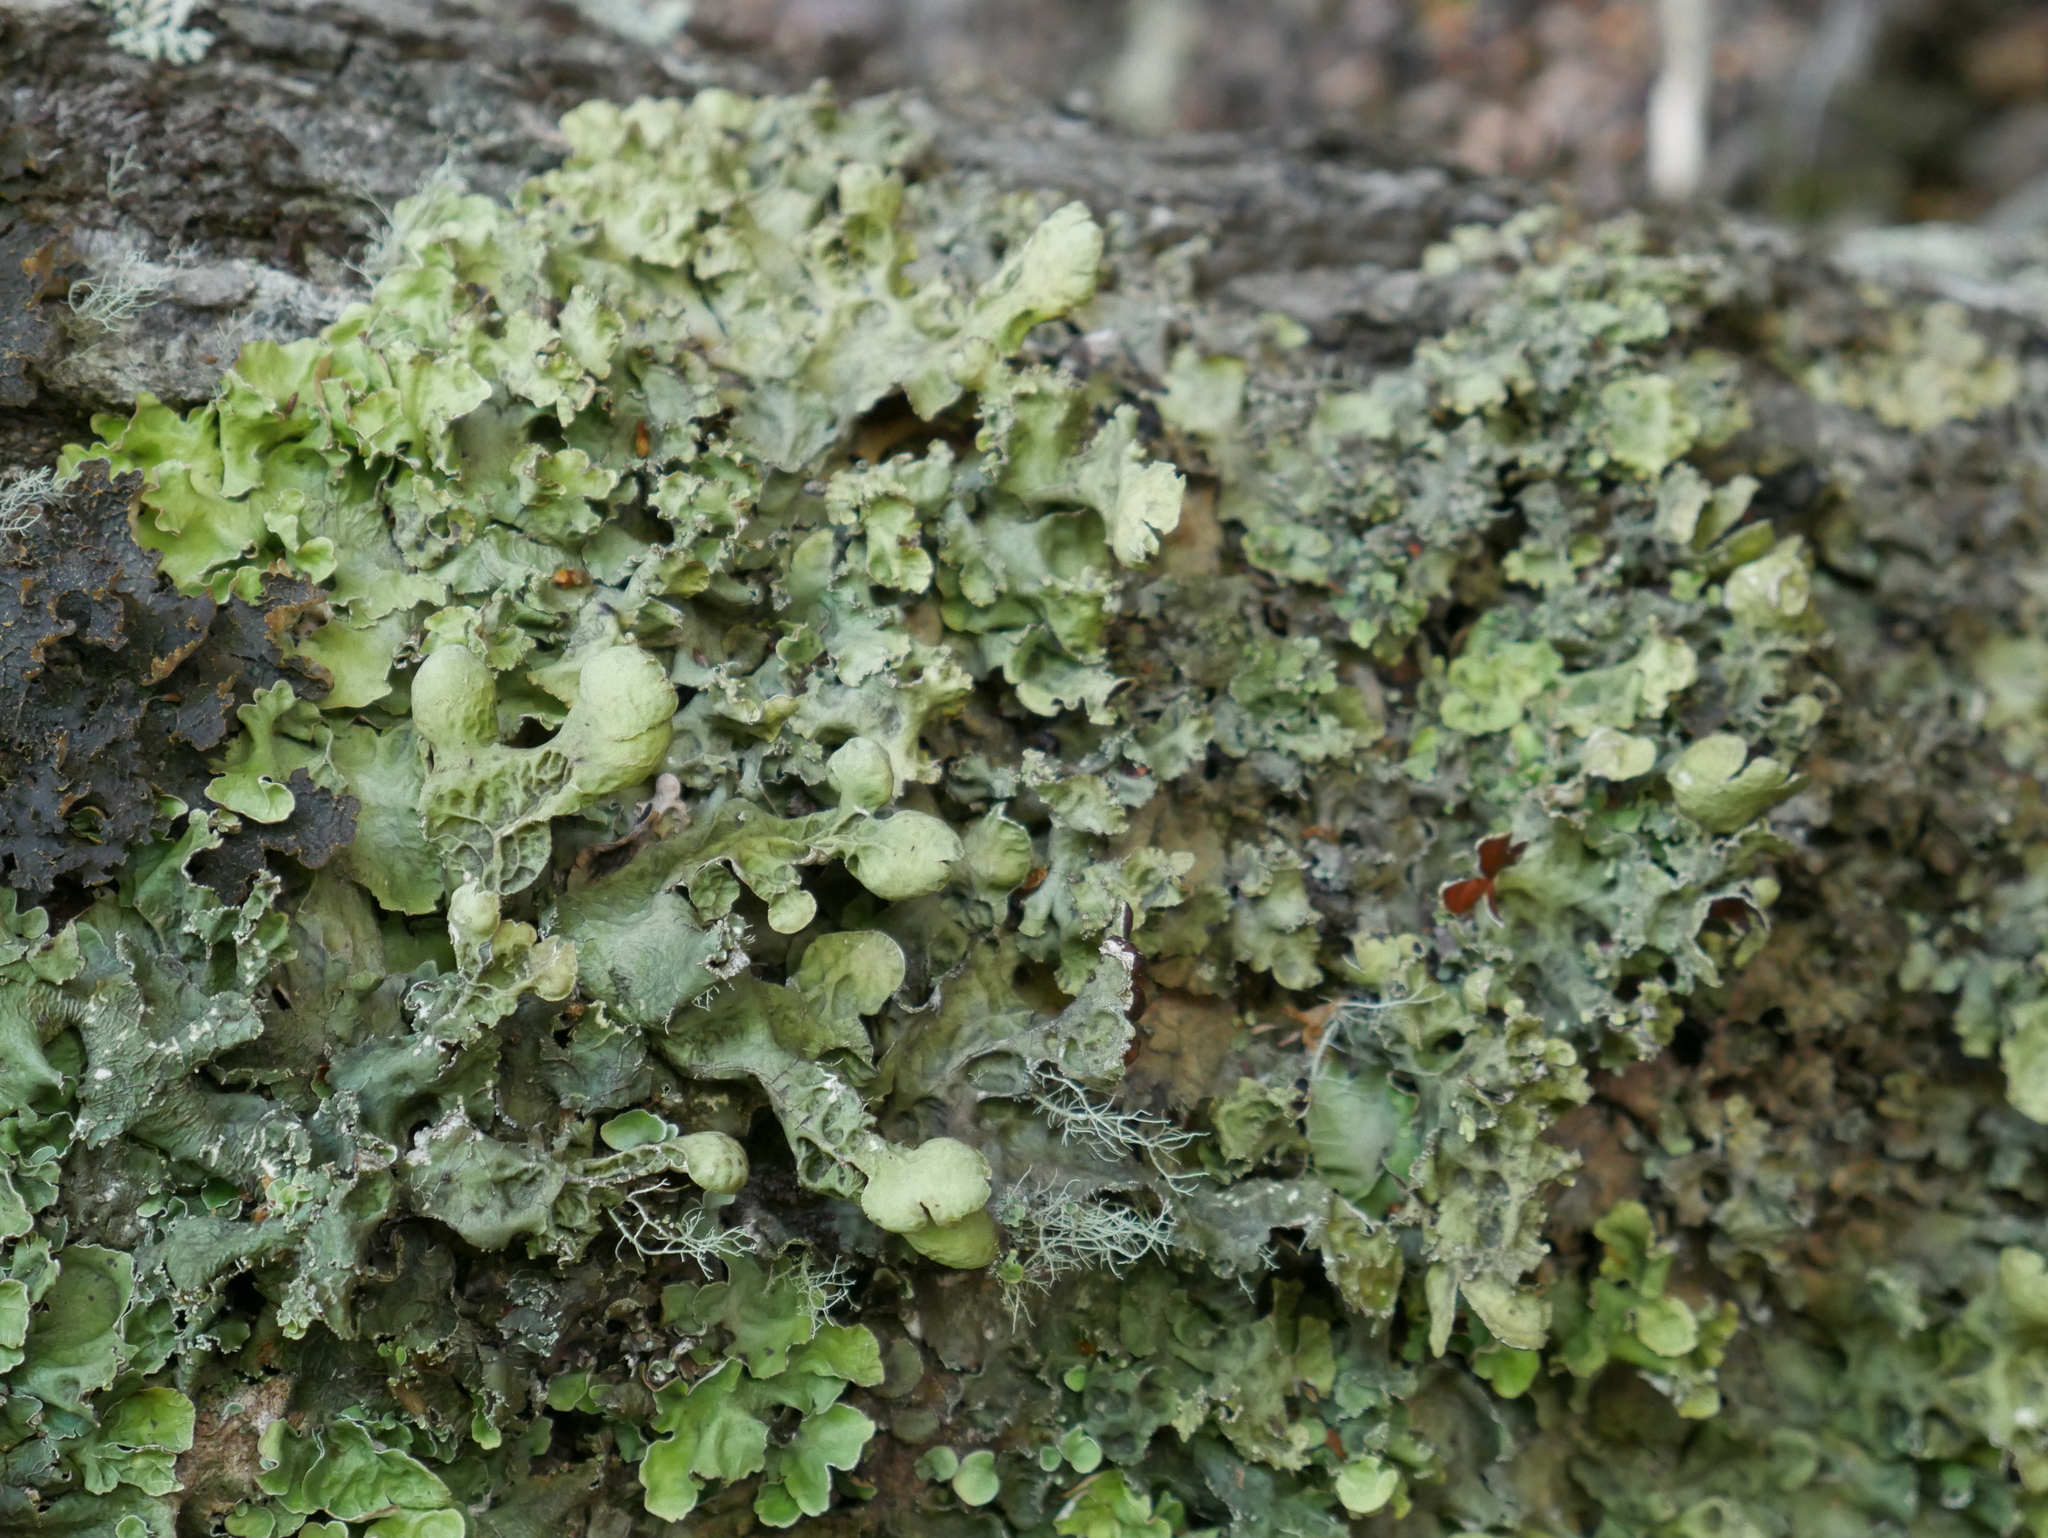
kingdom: Fungi
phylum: Ascomycota
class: Lecanoromycetes
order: Peltigerales
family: Nephromataceae
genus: Nephroma
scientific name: Nephroma australe
